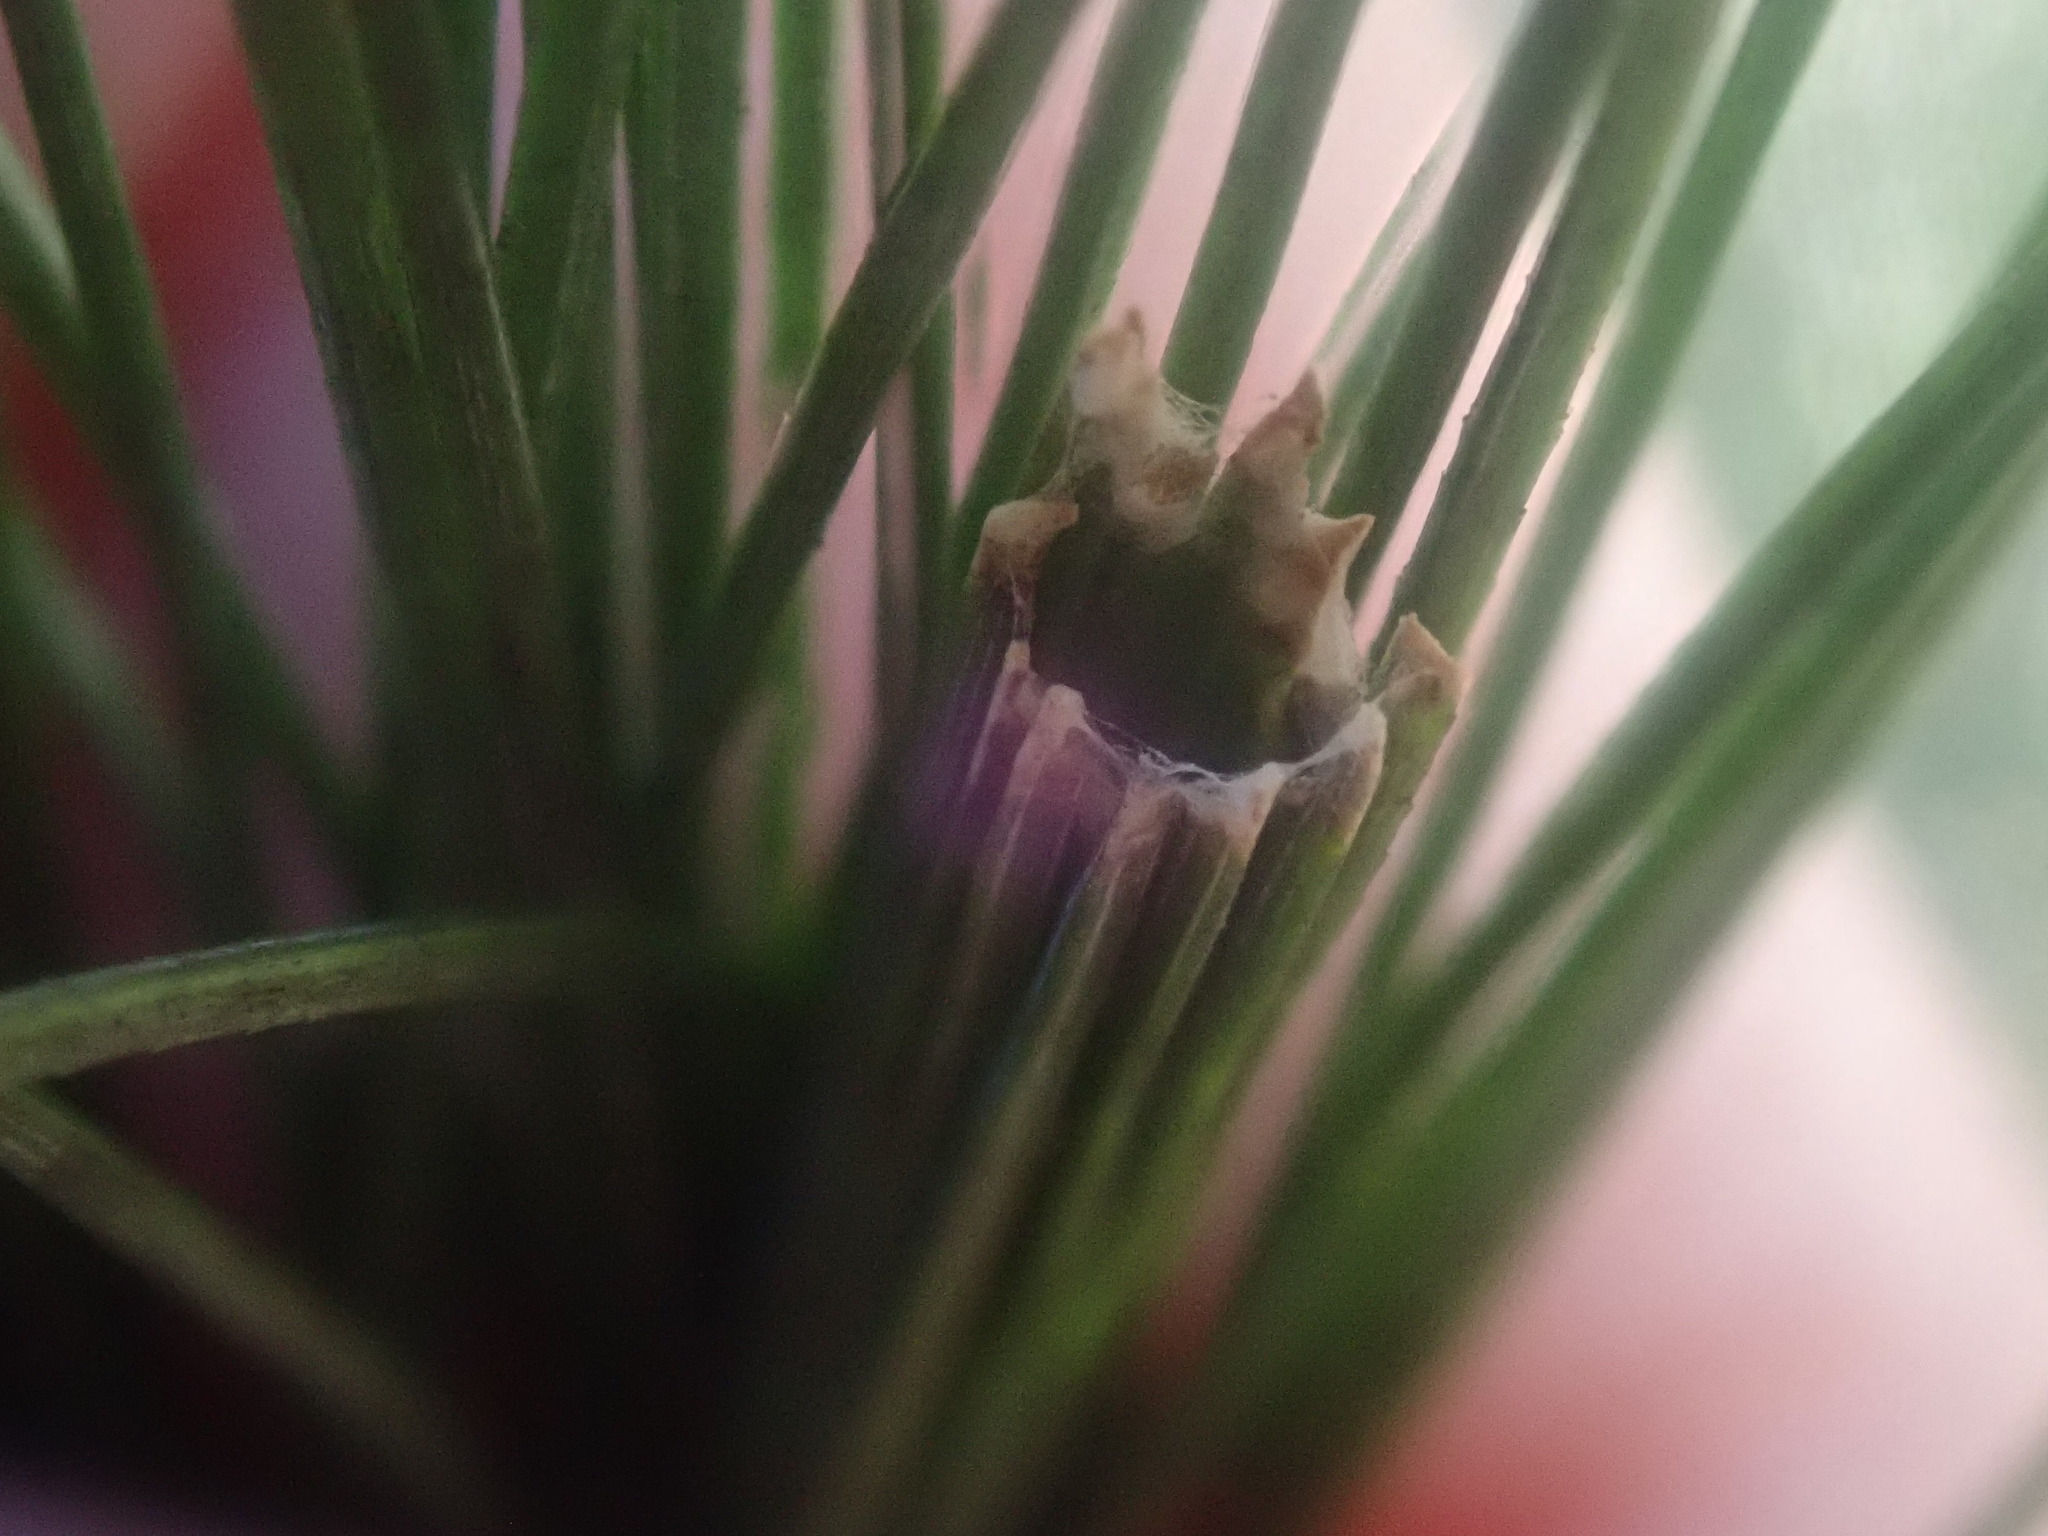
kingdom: Animalia
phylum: Arthropoda
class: Insecta
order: Lepidoptera
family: Tortricidae
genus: Argyrotaenia
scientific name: Argyrotaenia pinatubana
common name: Pine tube moth
